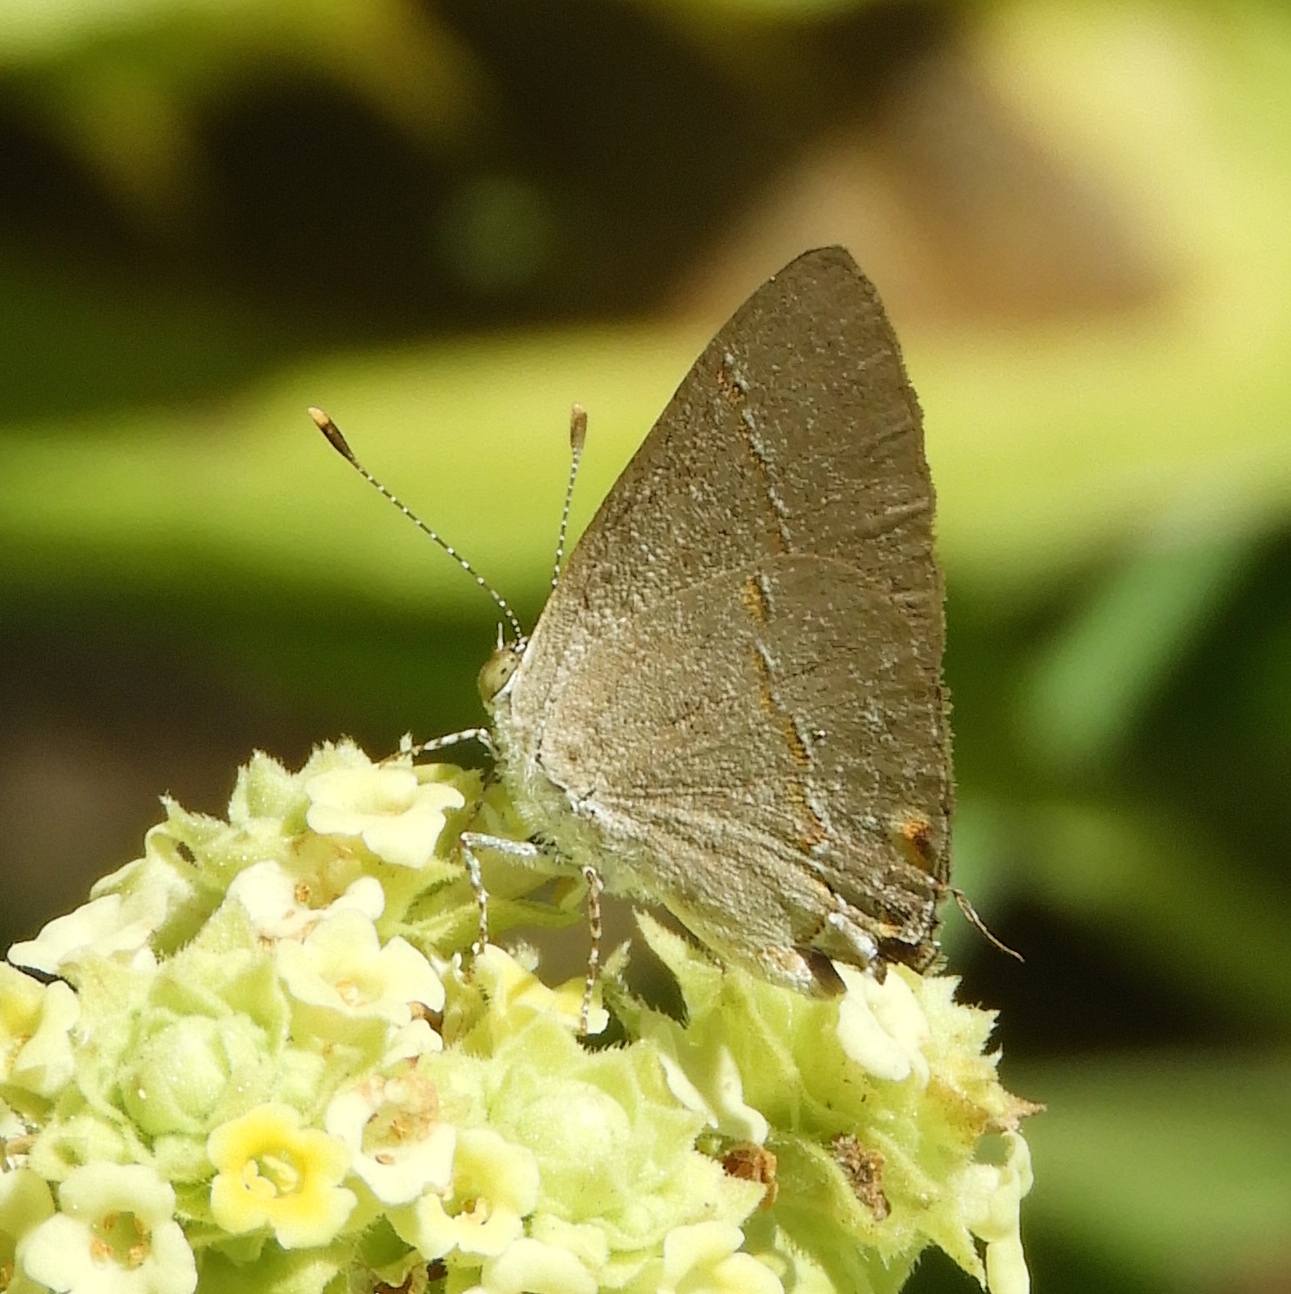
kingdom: Animalia
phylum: Arthropoda
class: Insecta
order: Lepidoptera
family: Lycaenidae
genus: Ministrymon
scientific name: Ministrymon janevicroy
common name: Pebbly ministreak
